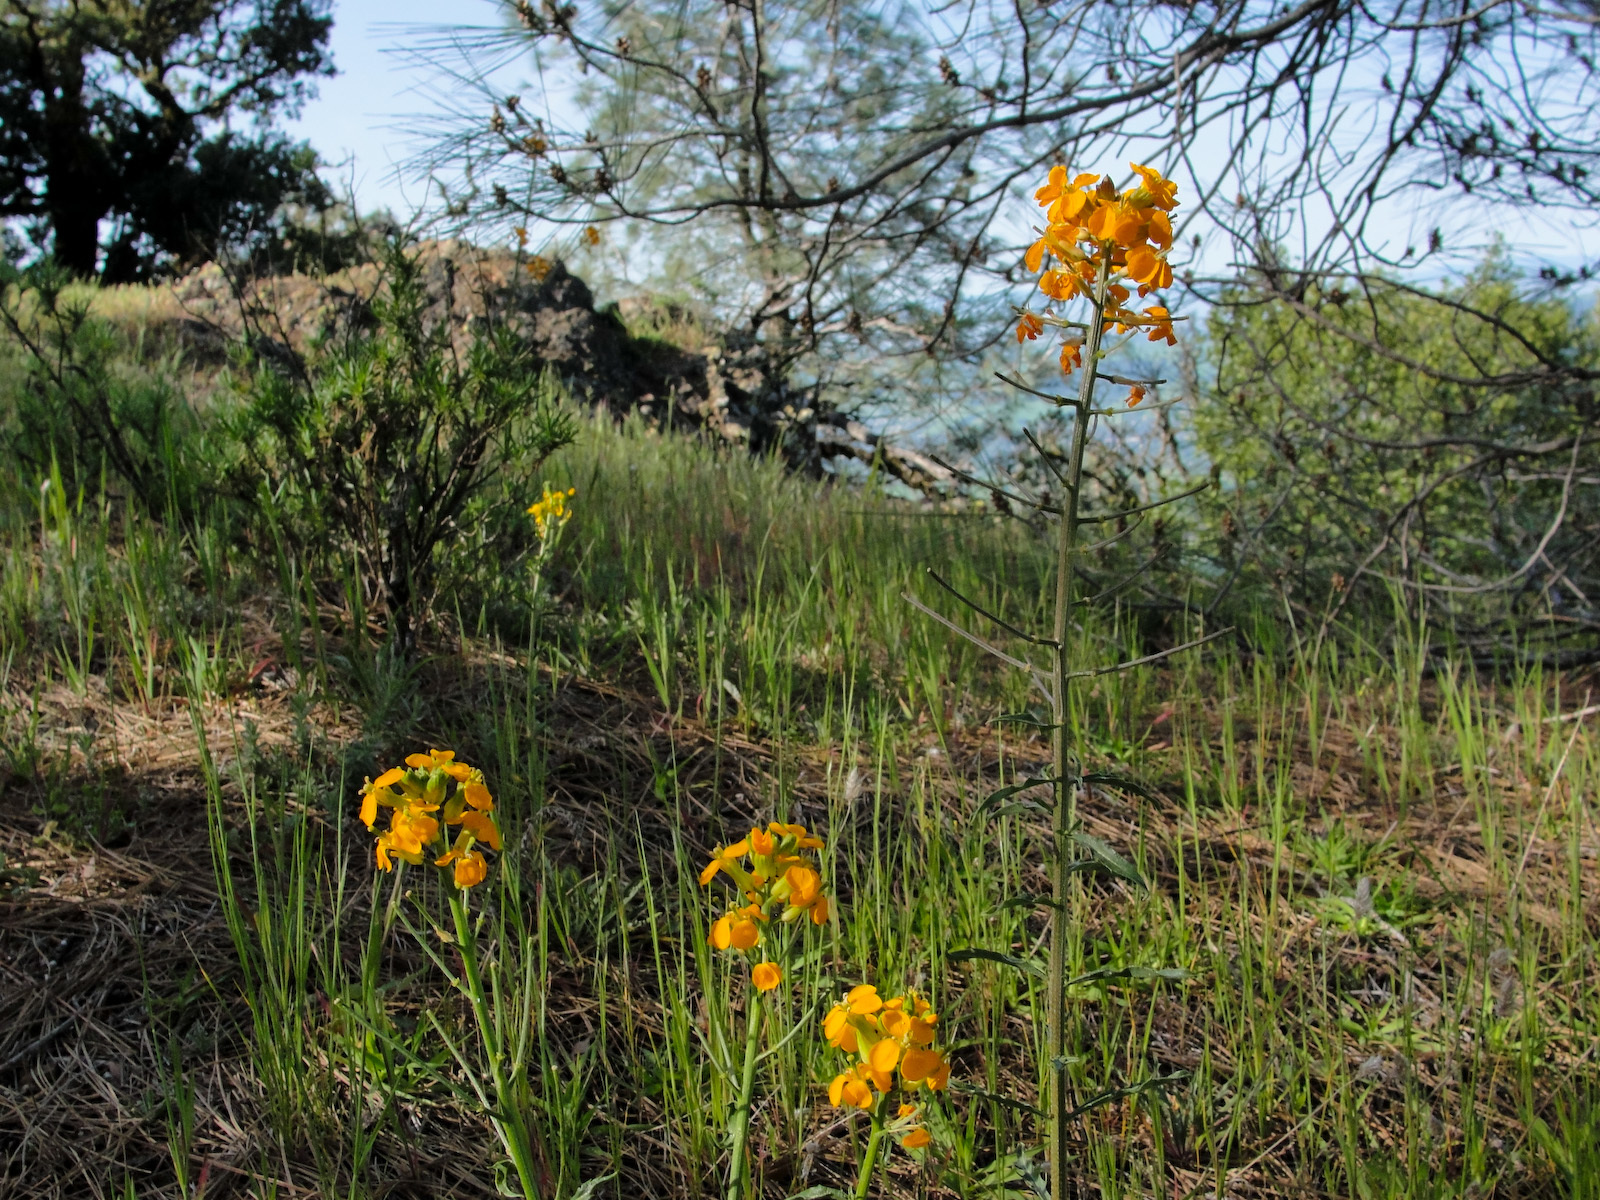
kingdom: Plantae
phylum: Tracheophyta
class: Magnoliopsida
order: Brassicales
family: Brassicaceae
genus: Erysimum
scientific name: Erysimum capitatum
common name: Western wallflower
